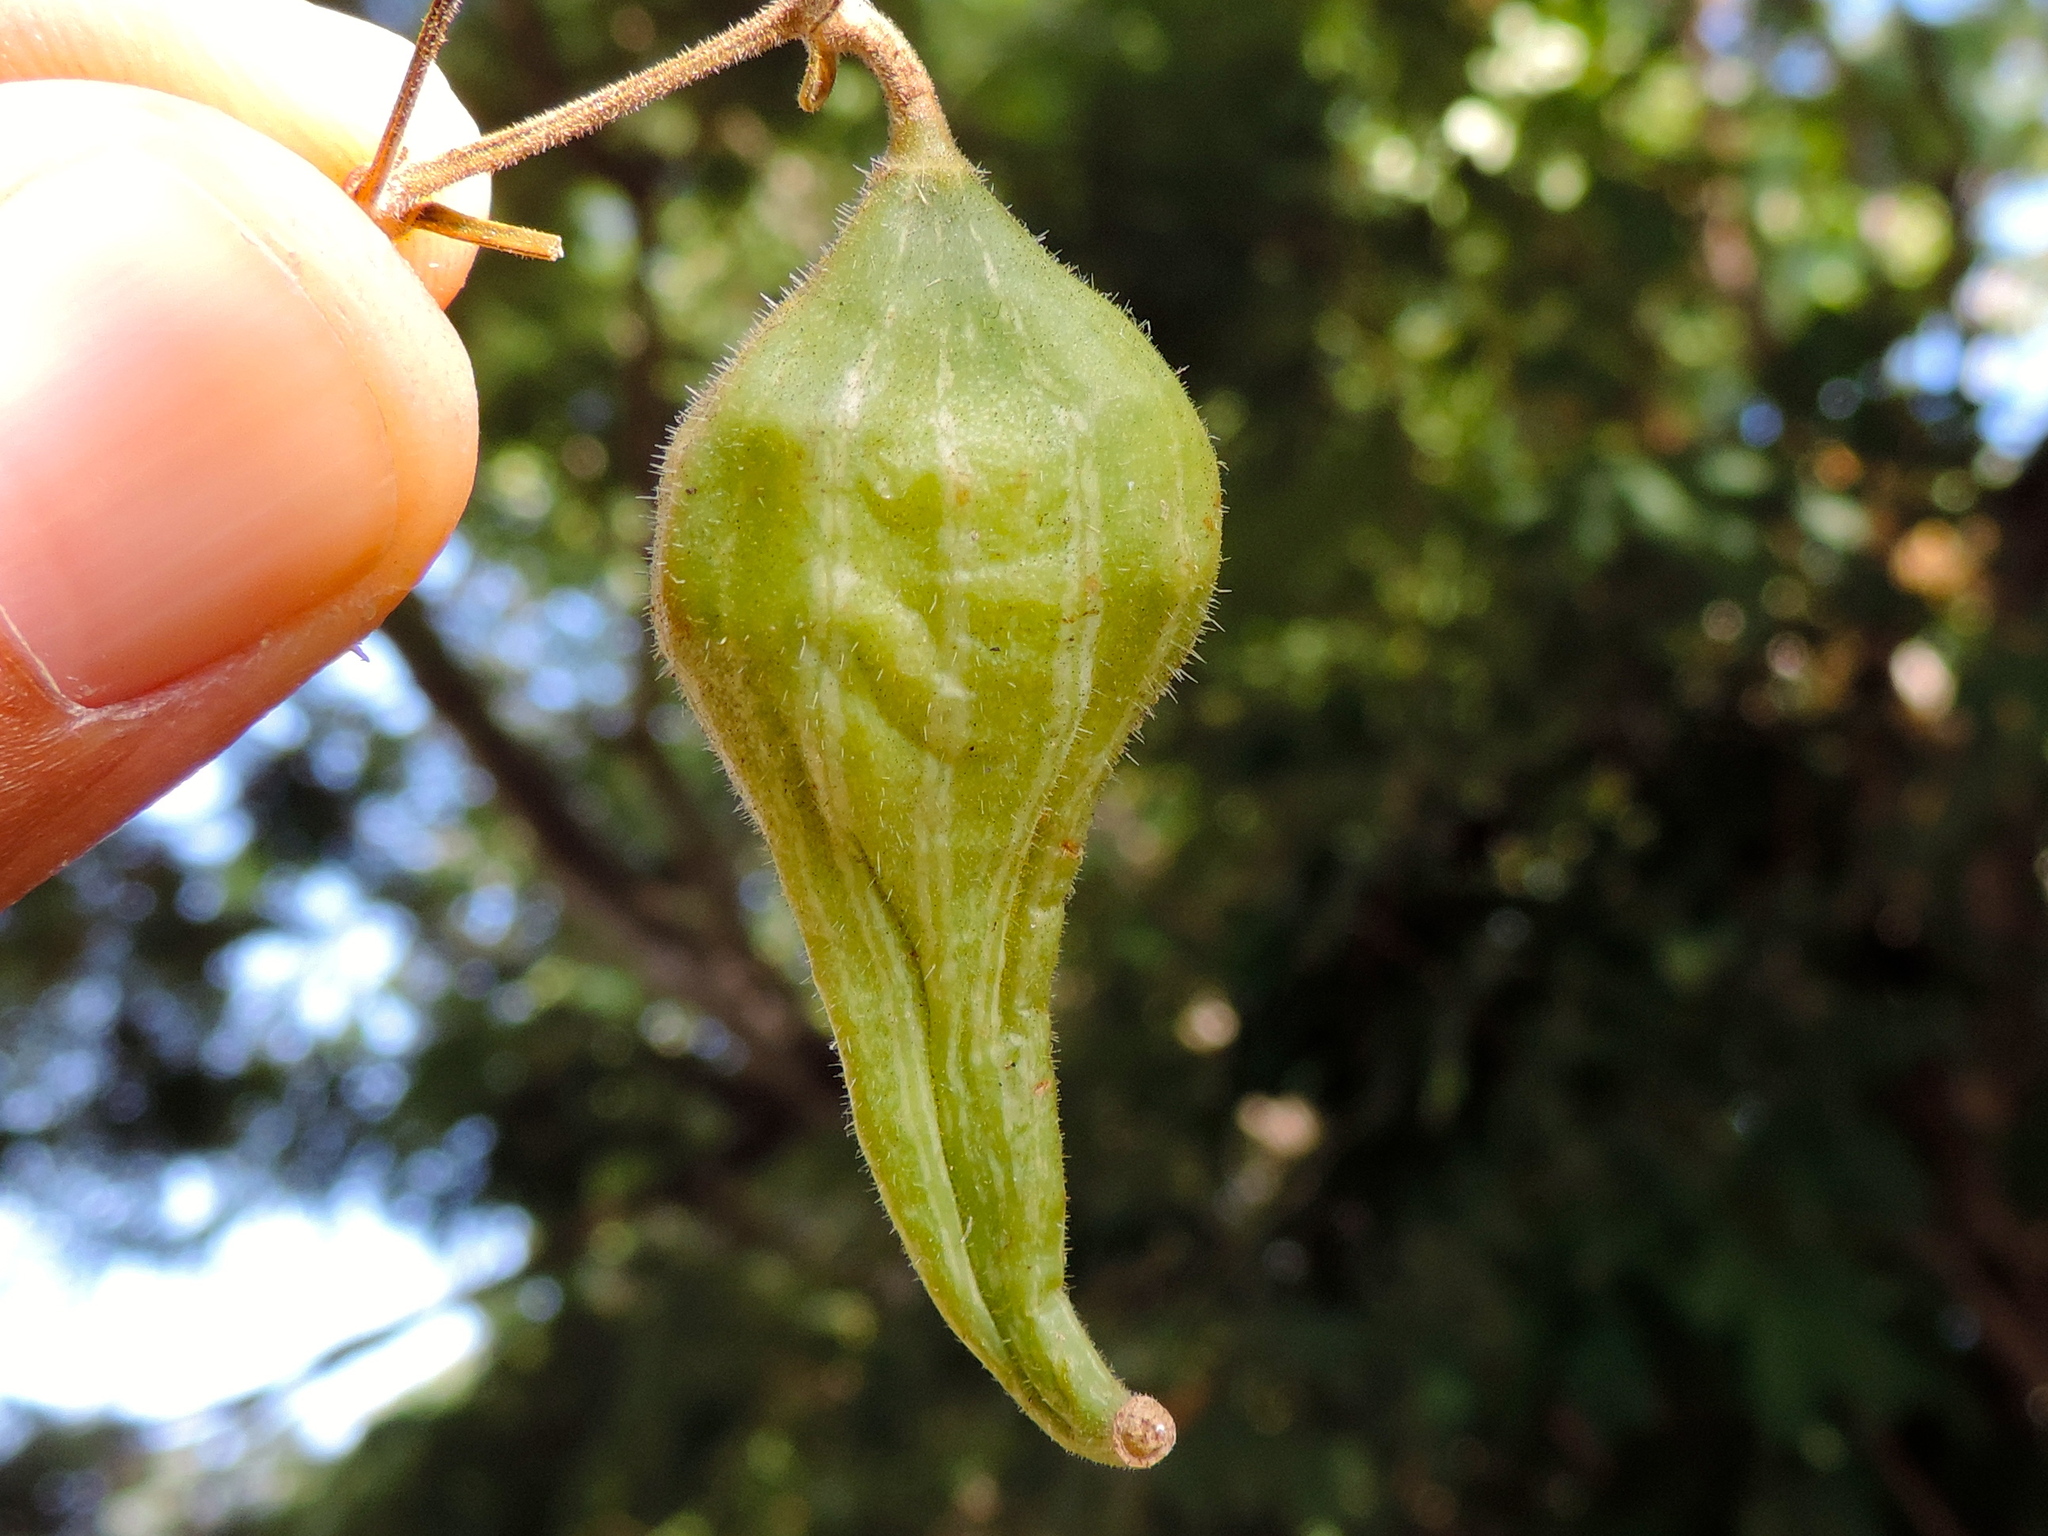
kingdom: Plantae
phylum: Tracheophyta
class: Magnoliopsida
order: Cucurbitales
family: Cucurbitaceae
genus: Schizocarpum
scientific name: Schizocarpum palmeri
